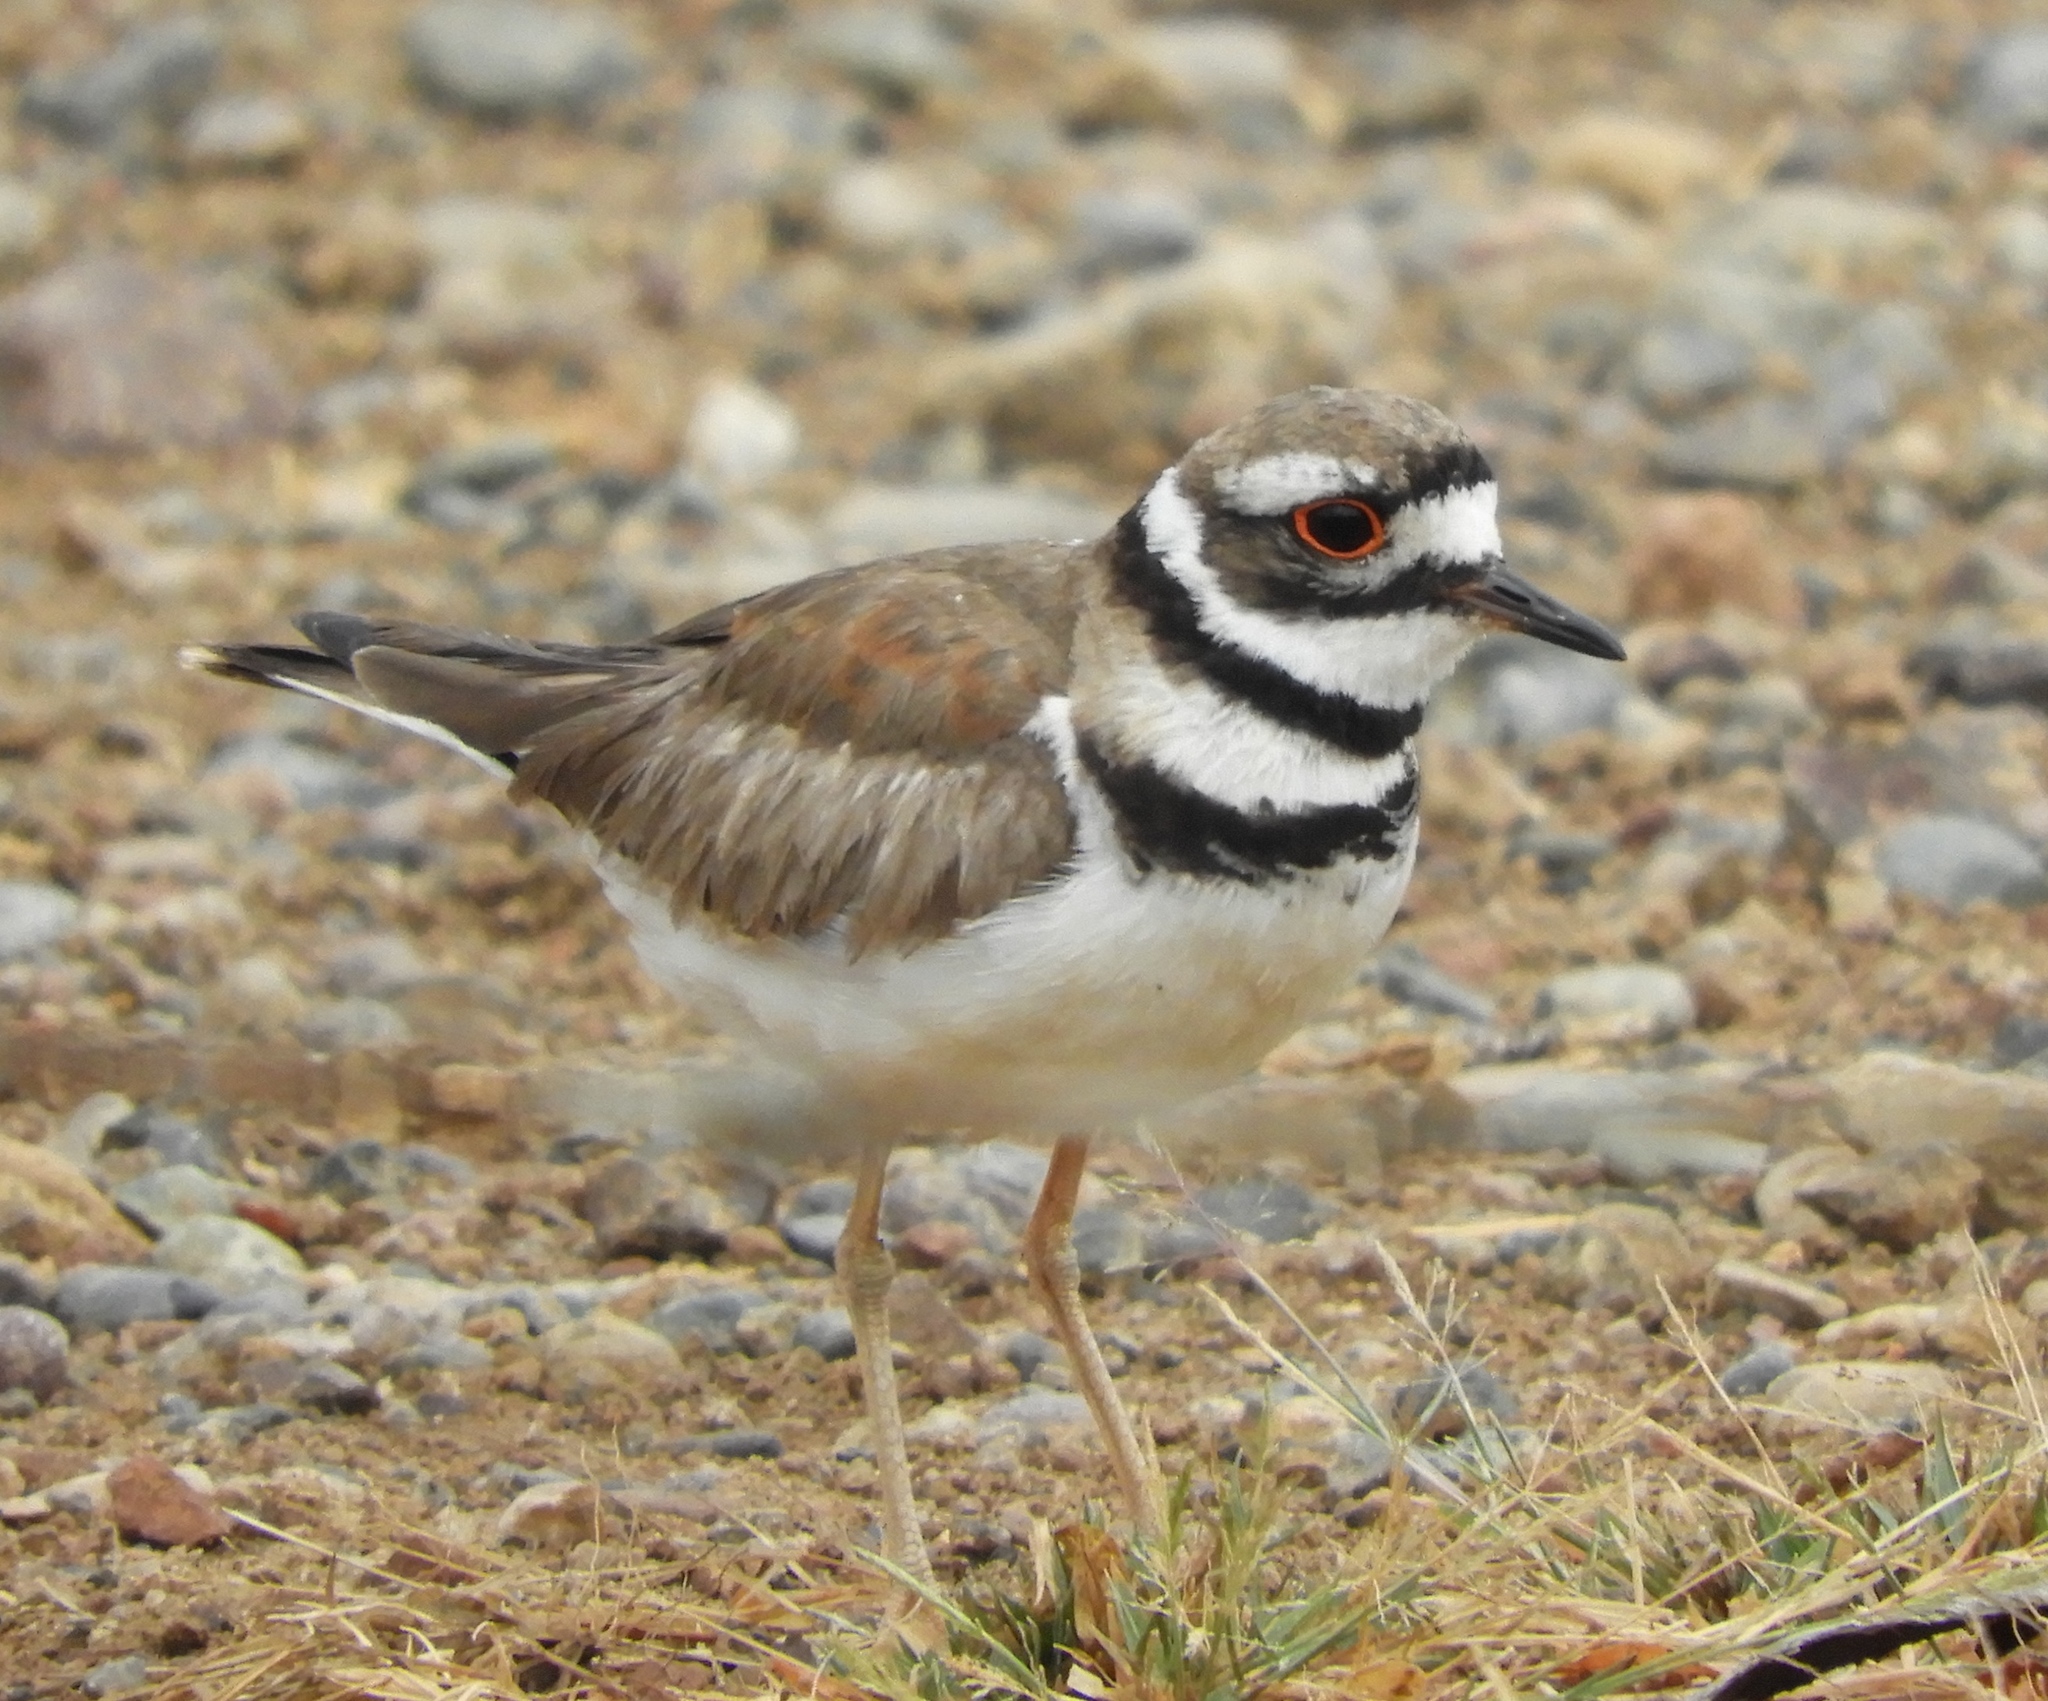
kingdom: Animalia
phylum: Chordata
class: Aves
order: Charadriiformes
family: Charadriidae
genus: Charadrius
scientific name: Charadrius vociferus
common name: Killdeer
